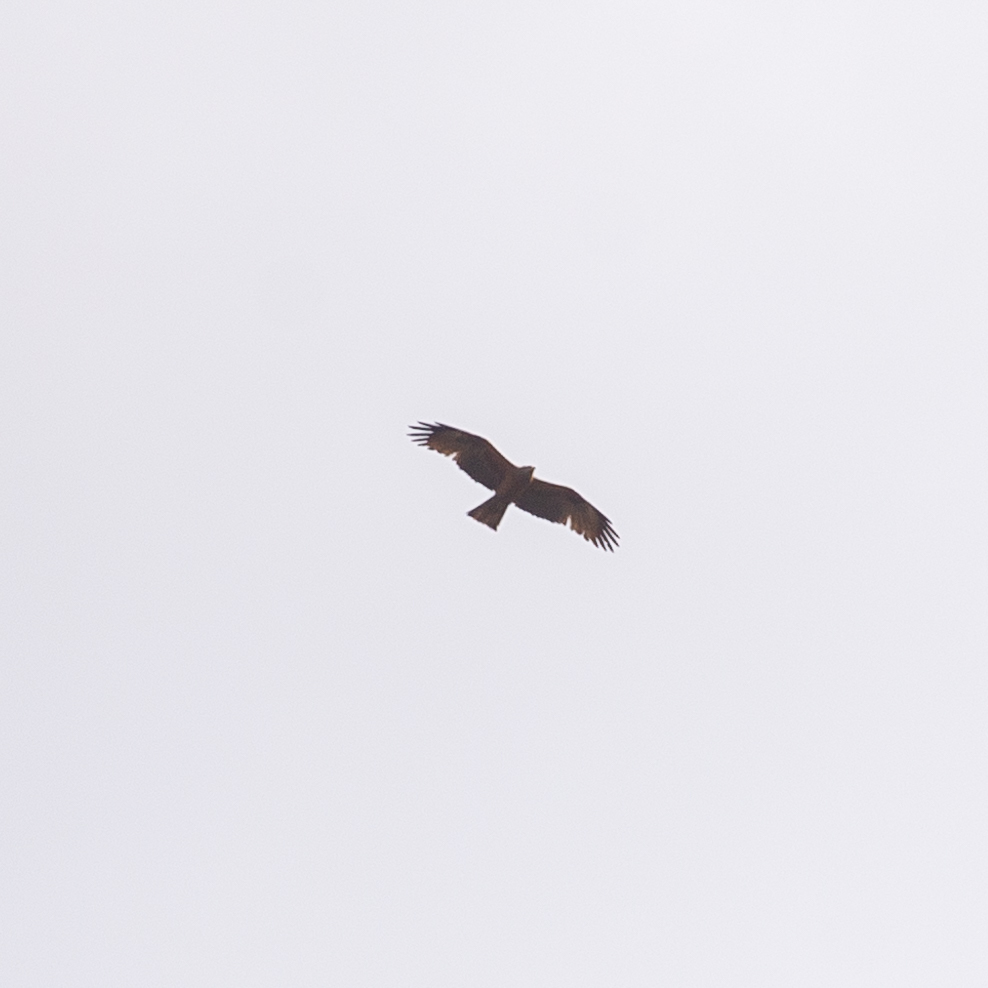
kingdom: Animalia
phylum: Chordata
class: Aves
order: Accipitriformes
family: Accipitridae
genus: Milvus
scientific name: Milvus migrans
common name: Black kite
